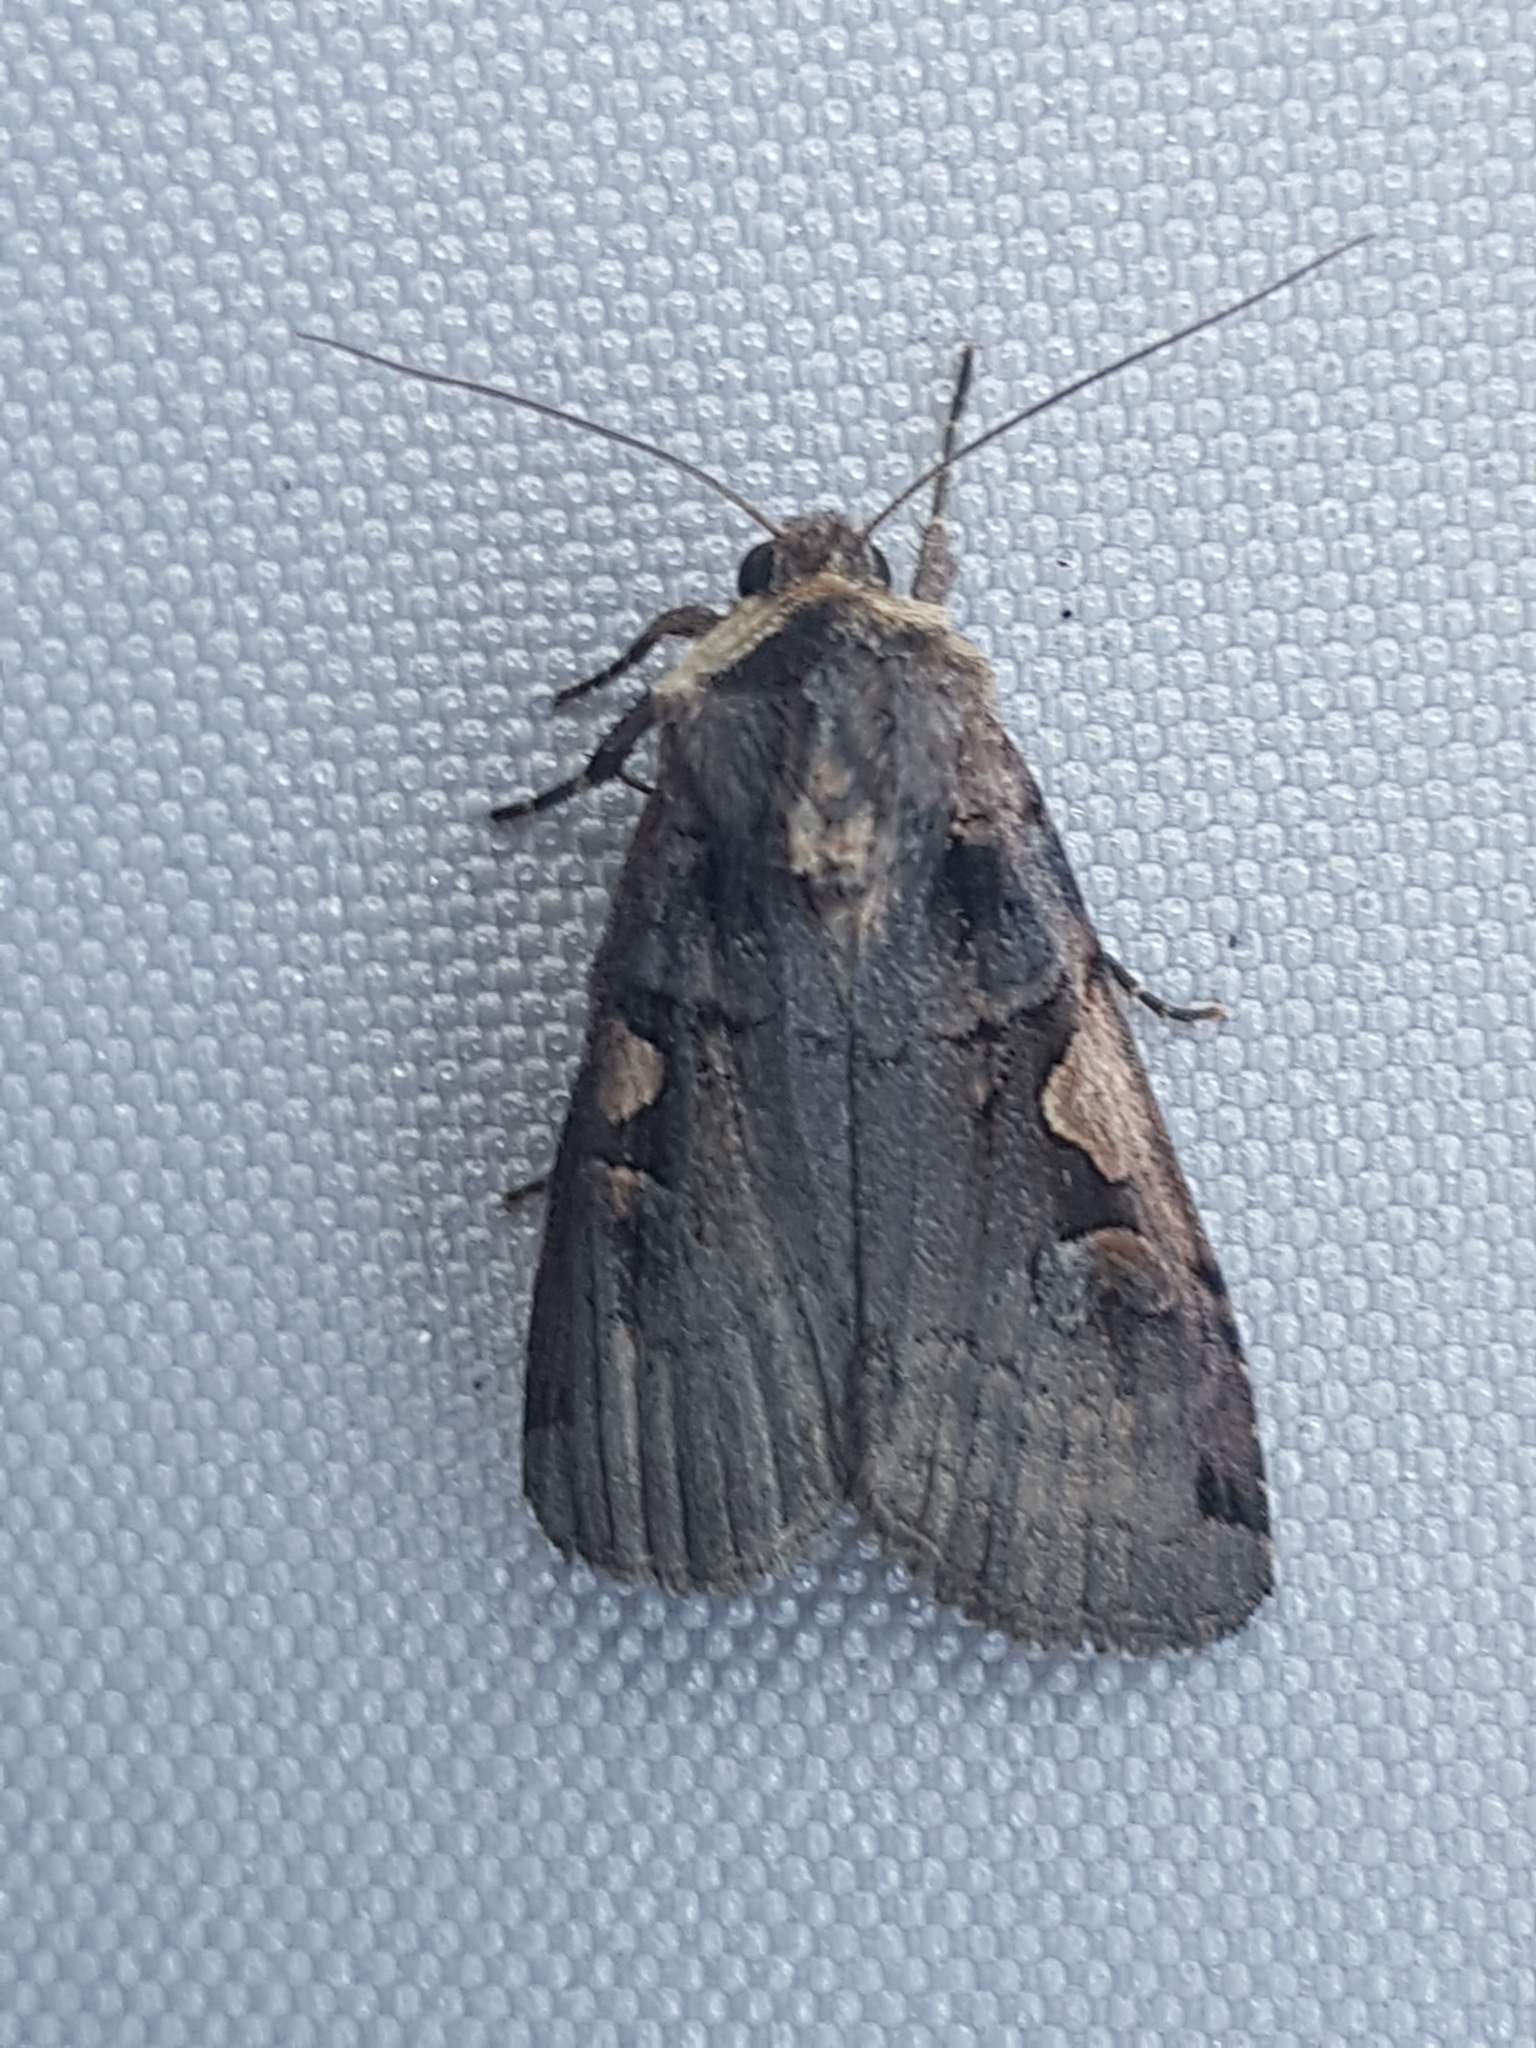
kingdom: Animalia
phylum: Arthropoda
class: Insecta
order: Lepidoptera
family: Noctuidae
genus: Xestia
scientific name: Xestia c-nigrum
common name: Setaceous hebrew character
